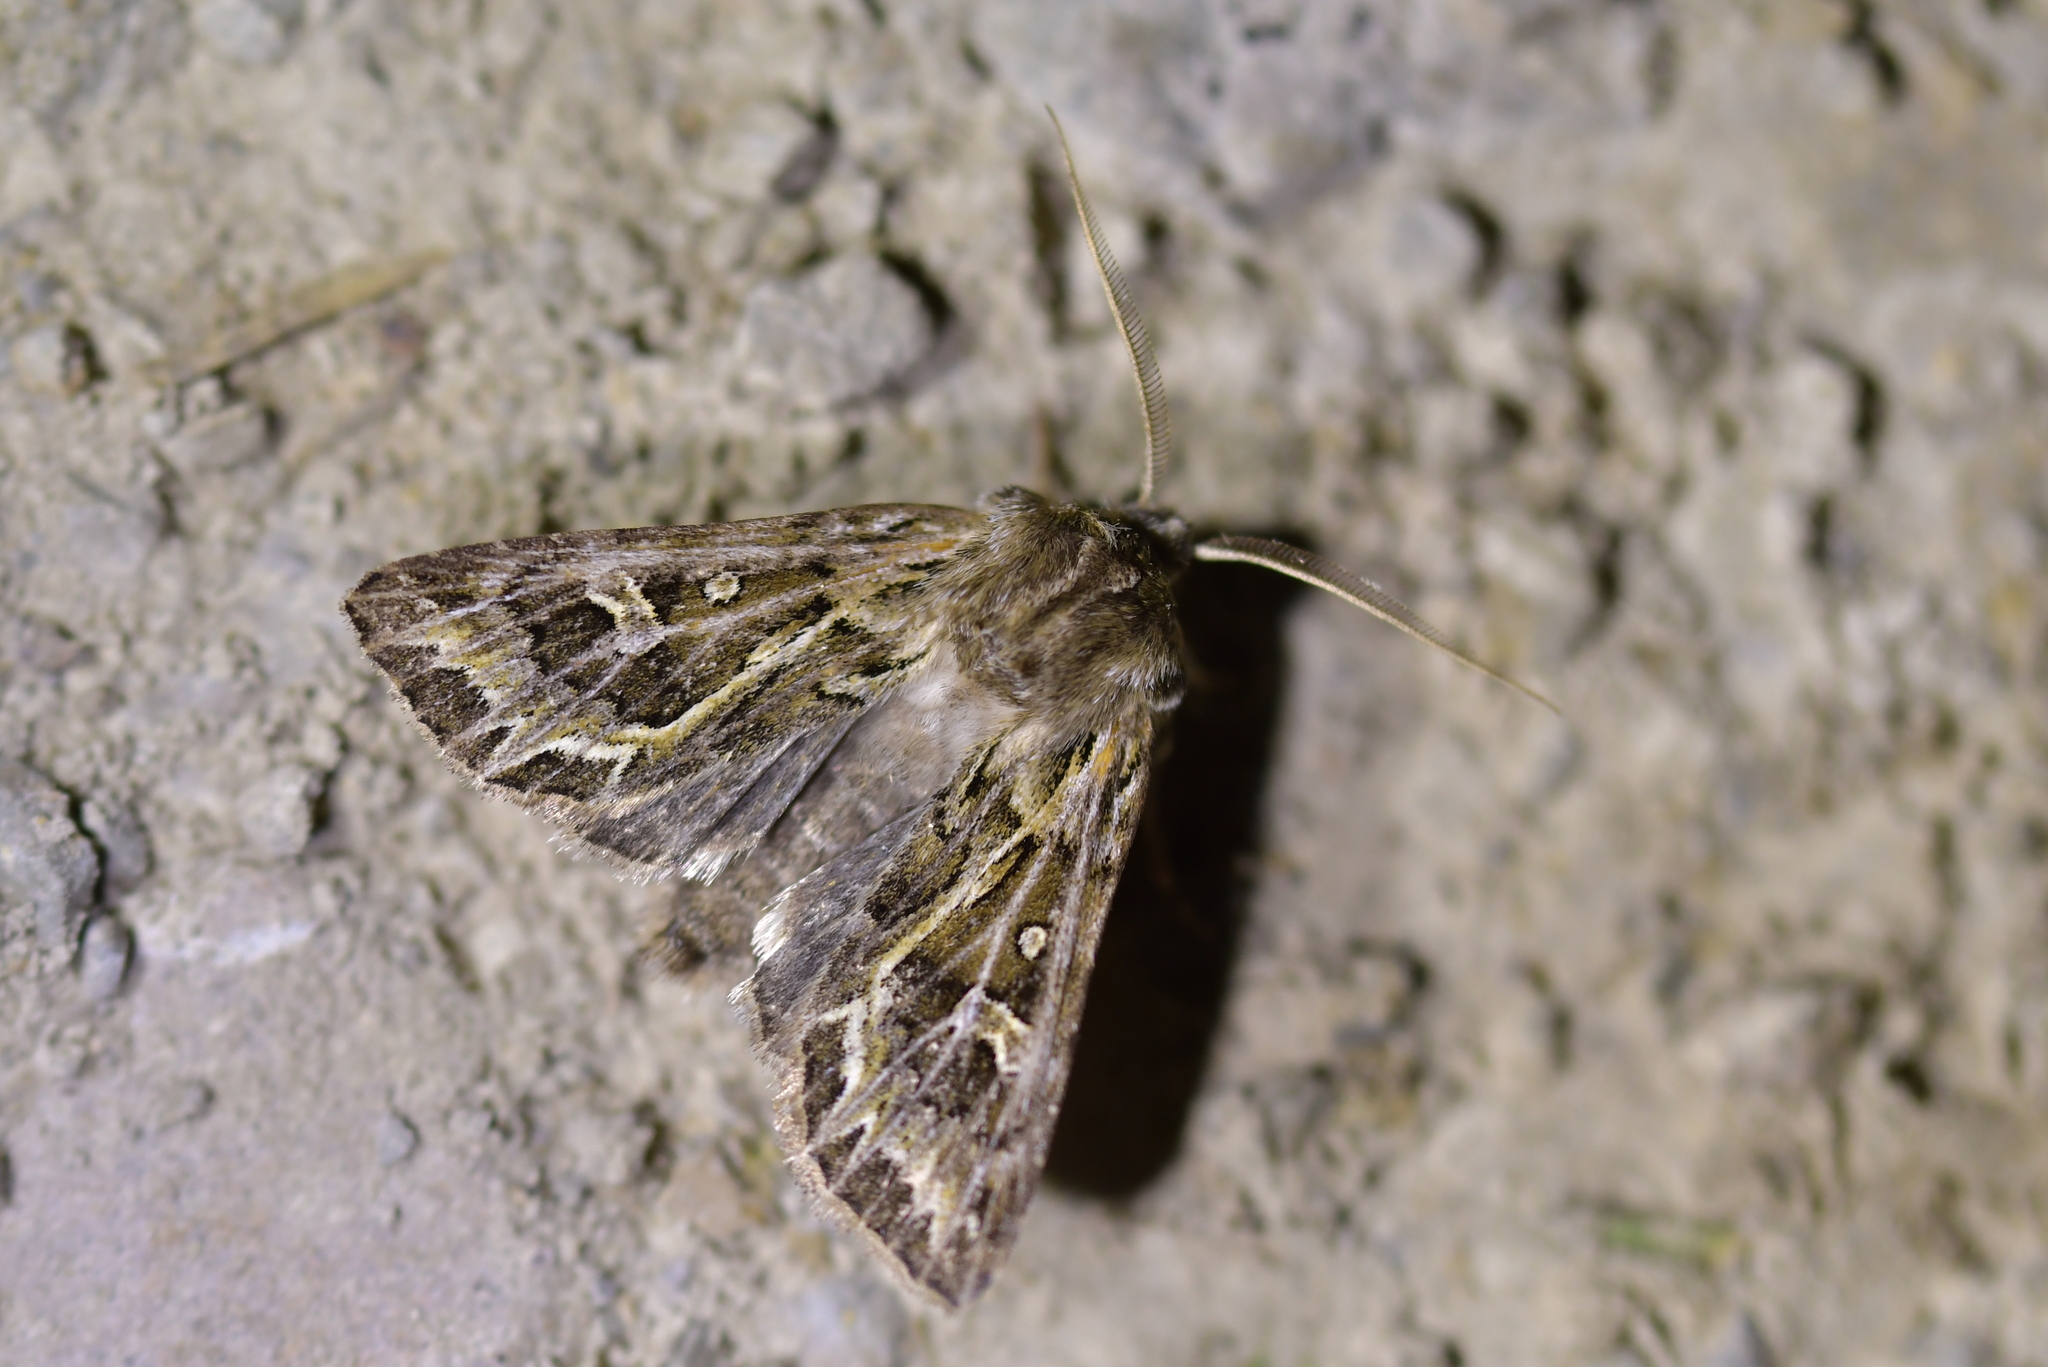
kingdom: Animalia
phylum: Arthropoda
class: Insecta
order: Lepidoptera
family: Noctuidae
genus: Ichneutica
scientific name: Ichneutica
